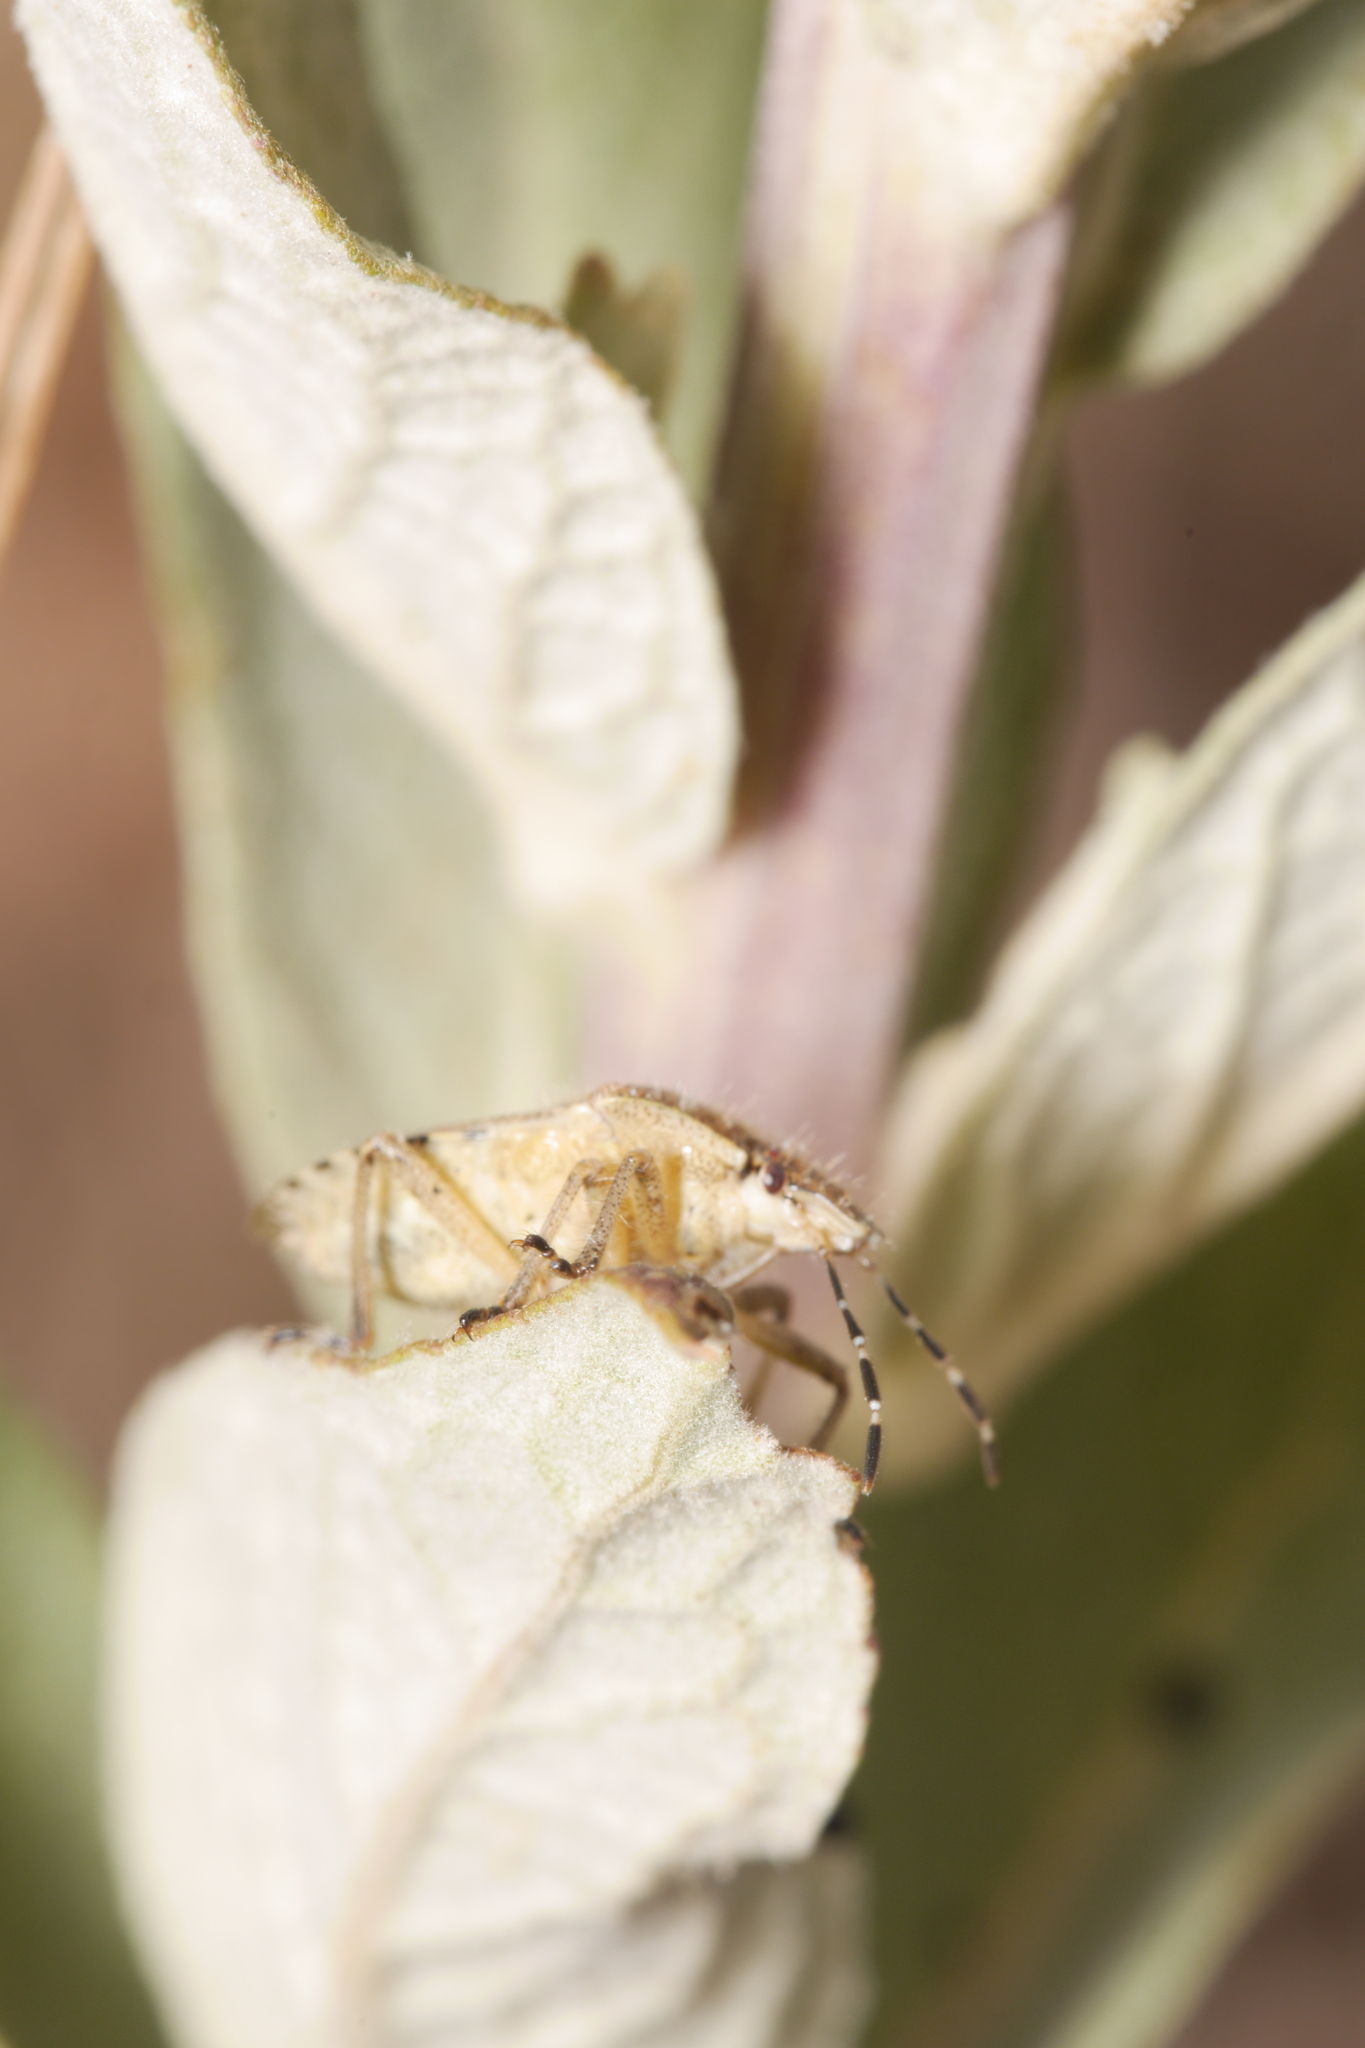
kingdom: Animalia
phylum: Arthropoda
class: Insecta
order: Hemiptera
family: Pentatomidae
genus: Dolycoris
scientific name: Dolycoris baccarum
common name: Sloe bug
